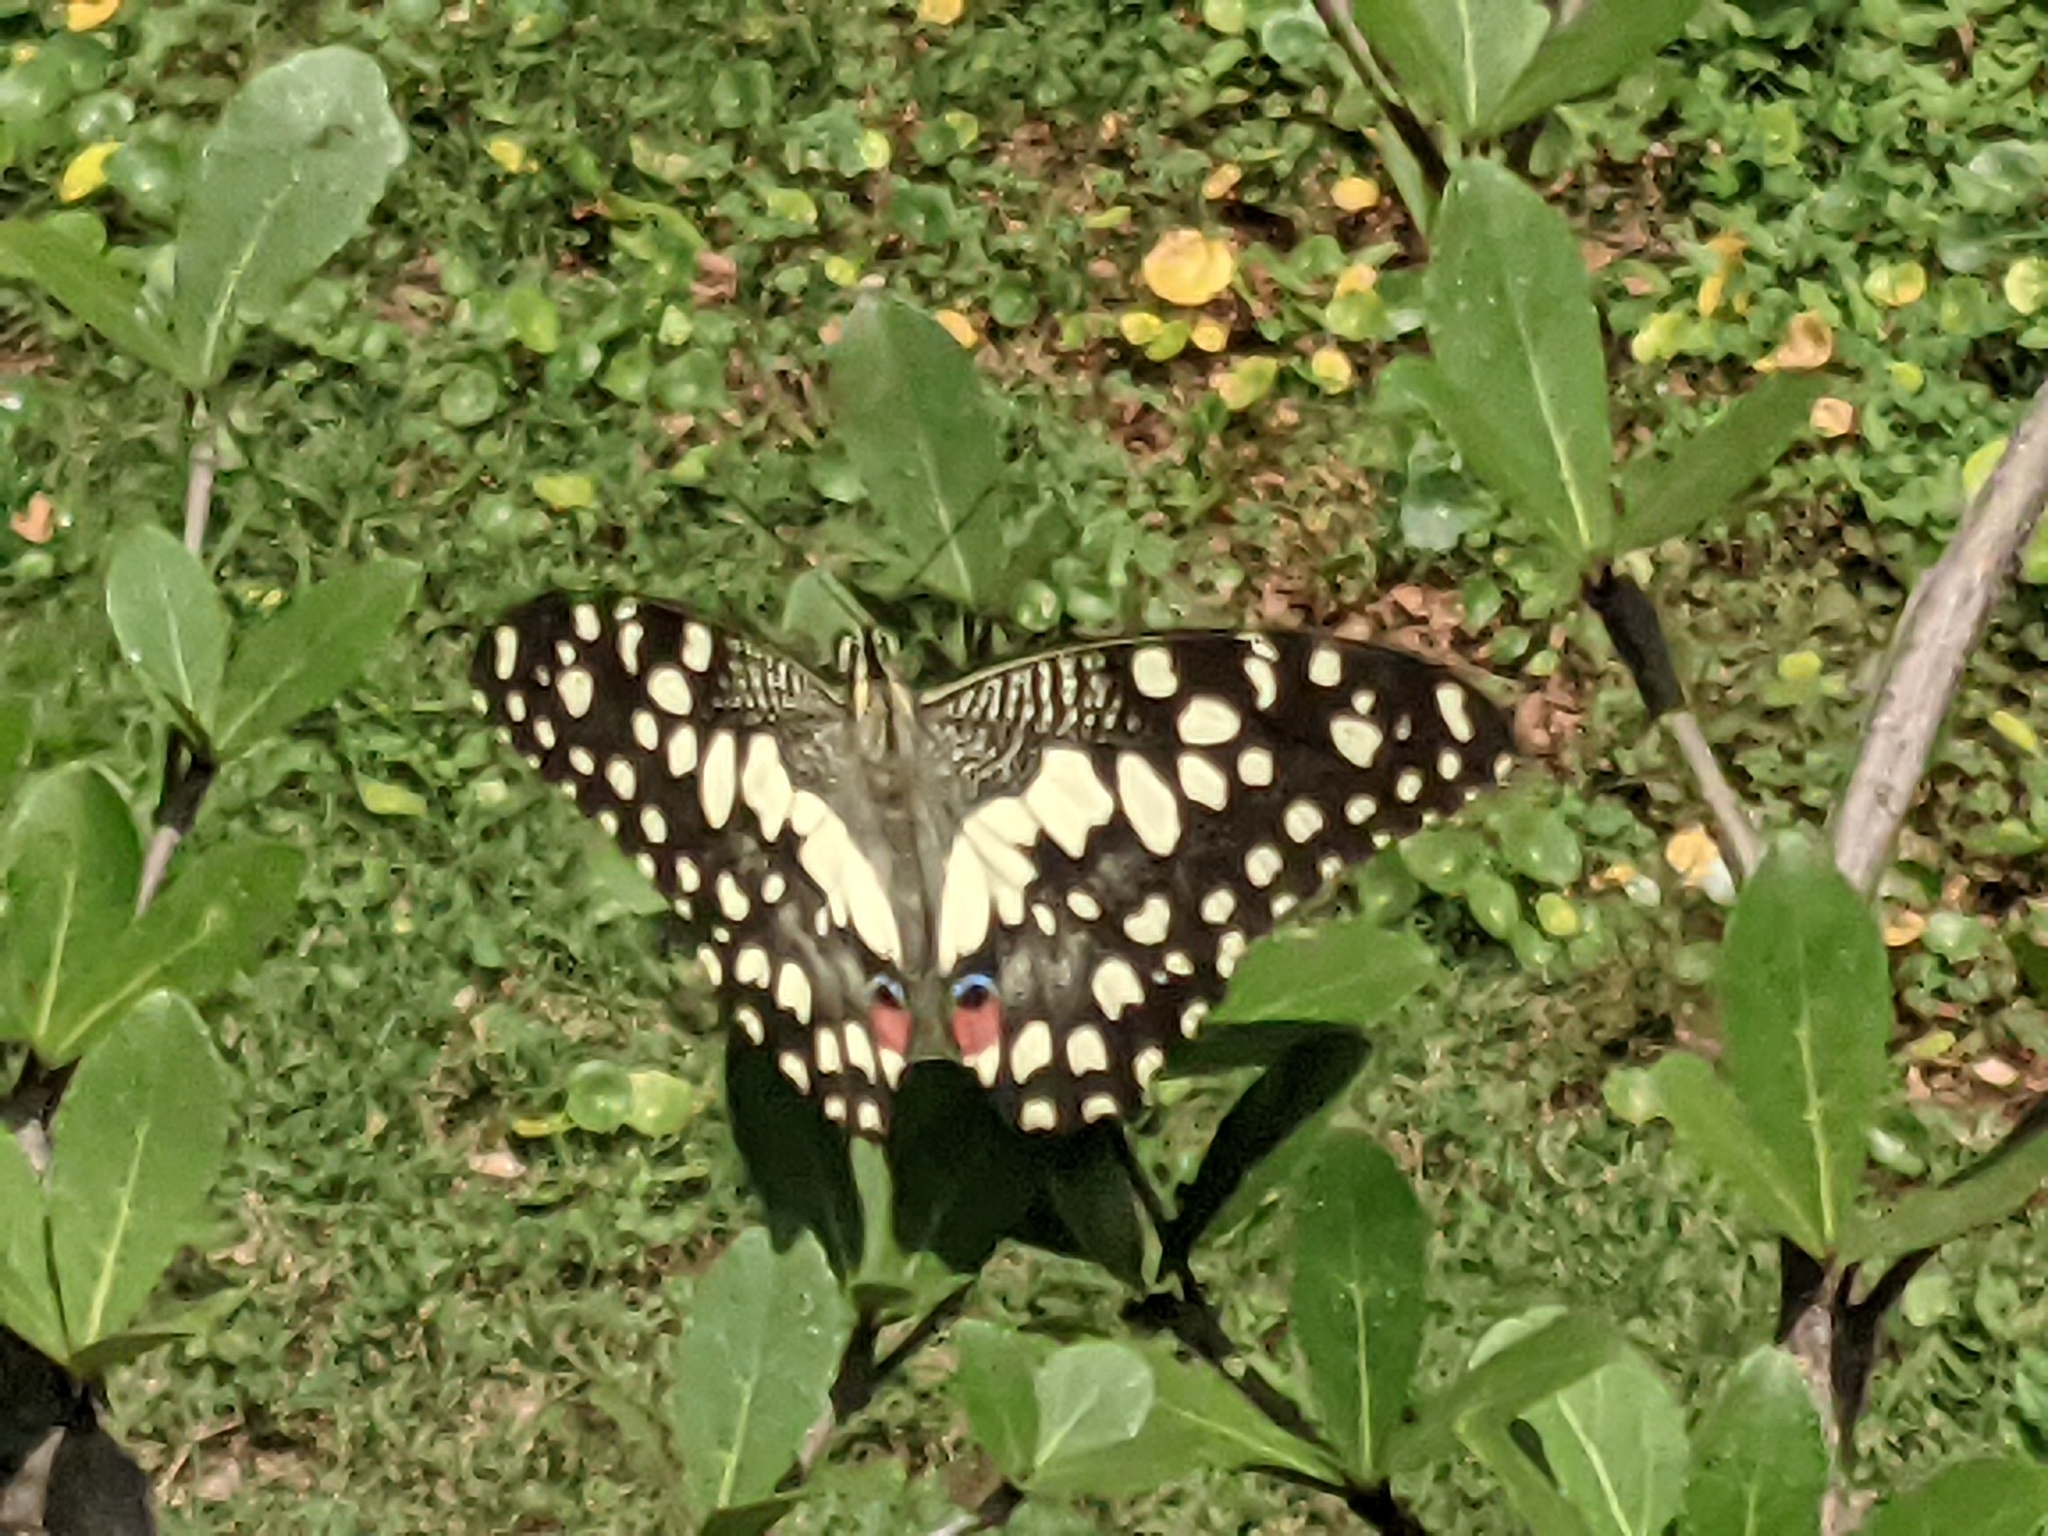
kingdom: Animalia
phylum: Arthropoda
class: Insecta
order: Lepidoptera
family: Papilionidae
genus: Papilio
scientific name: Papilio demoleus
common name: Lime butterfly
